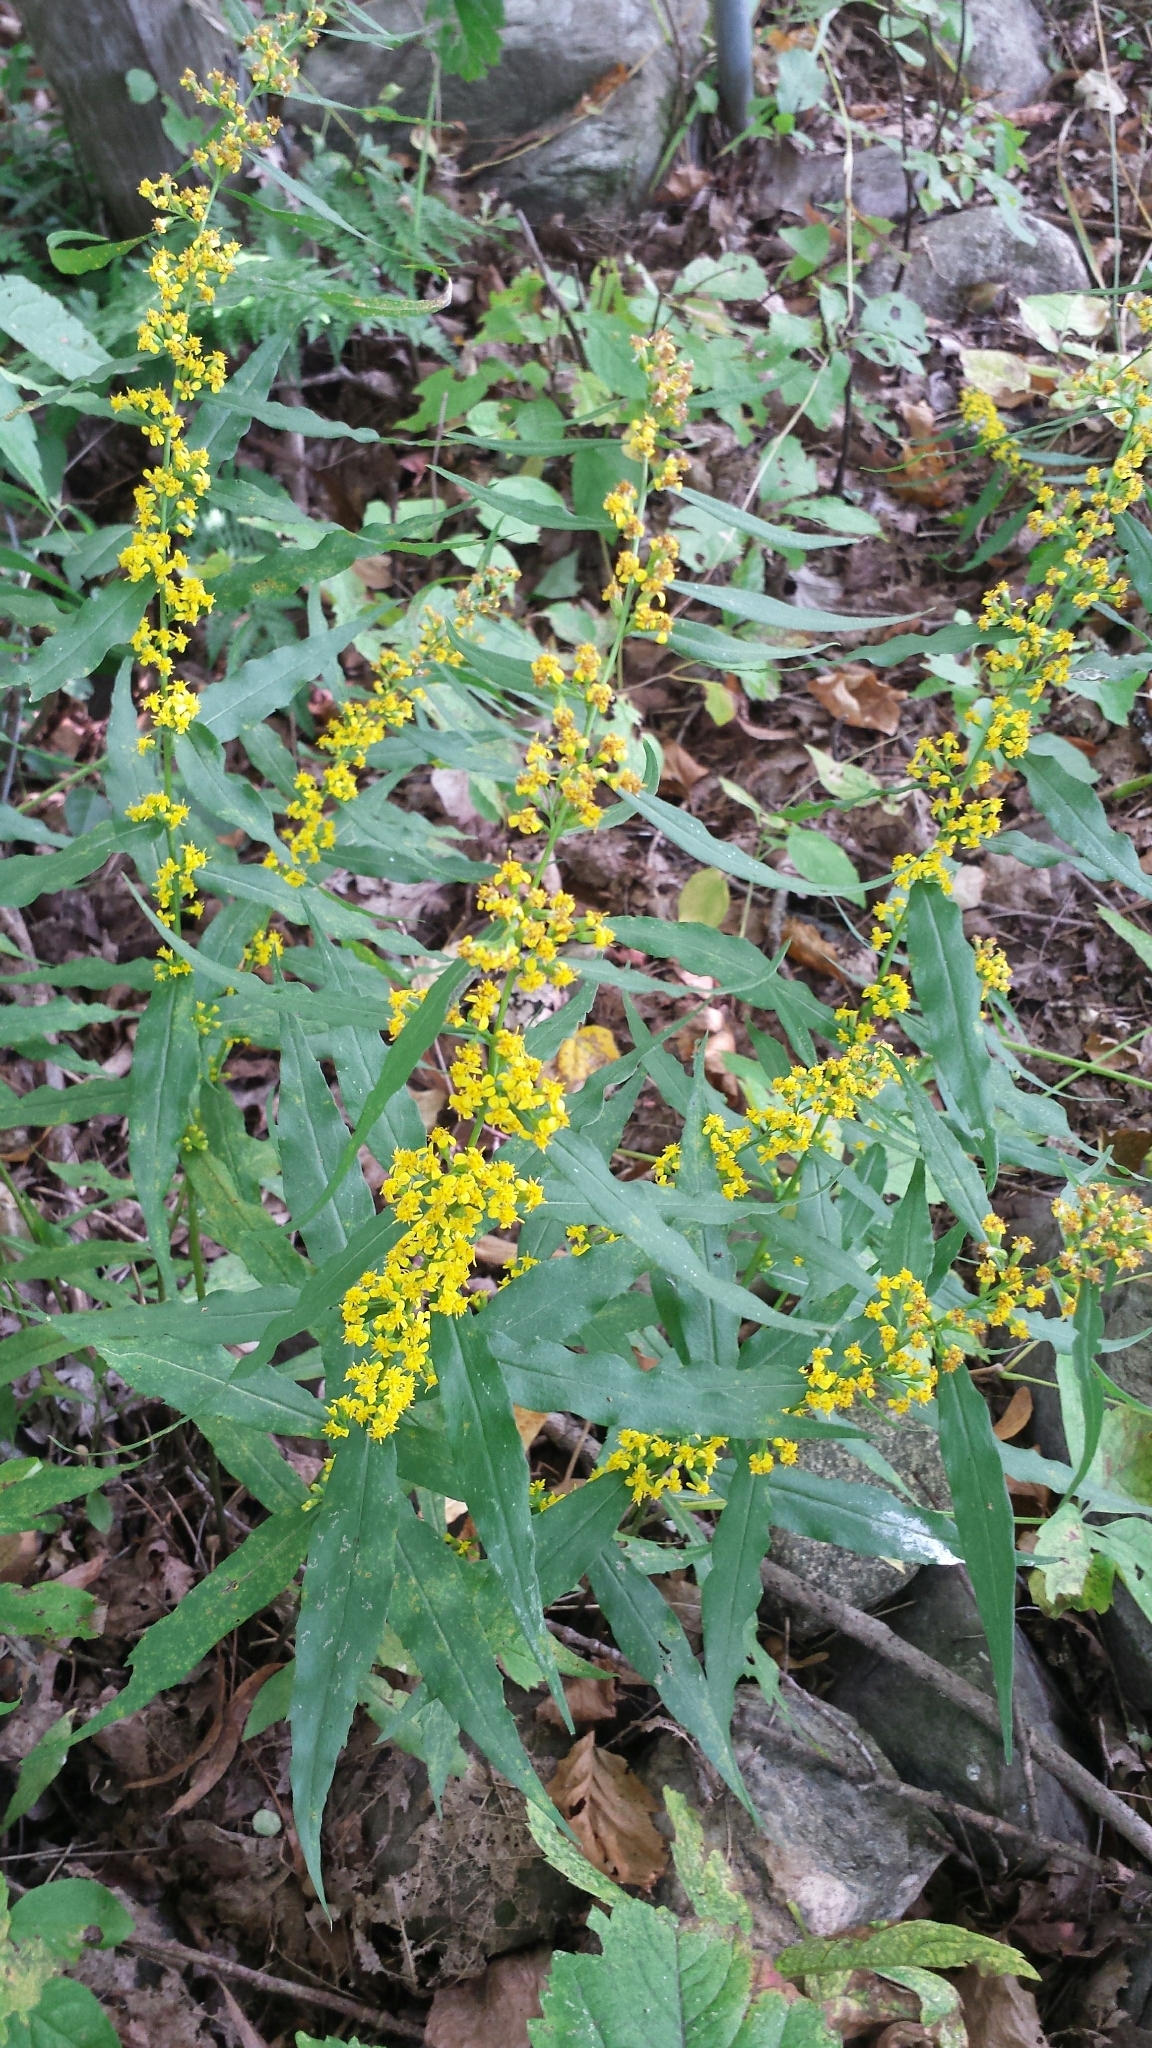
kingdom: Plantae
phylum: Tracheophyta
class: Magnoliopsida
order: Asterales
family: Asteraceae
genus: Solidago
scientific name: Solidago caesia
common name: Woodland goldenrod
